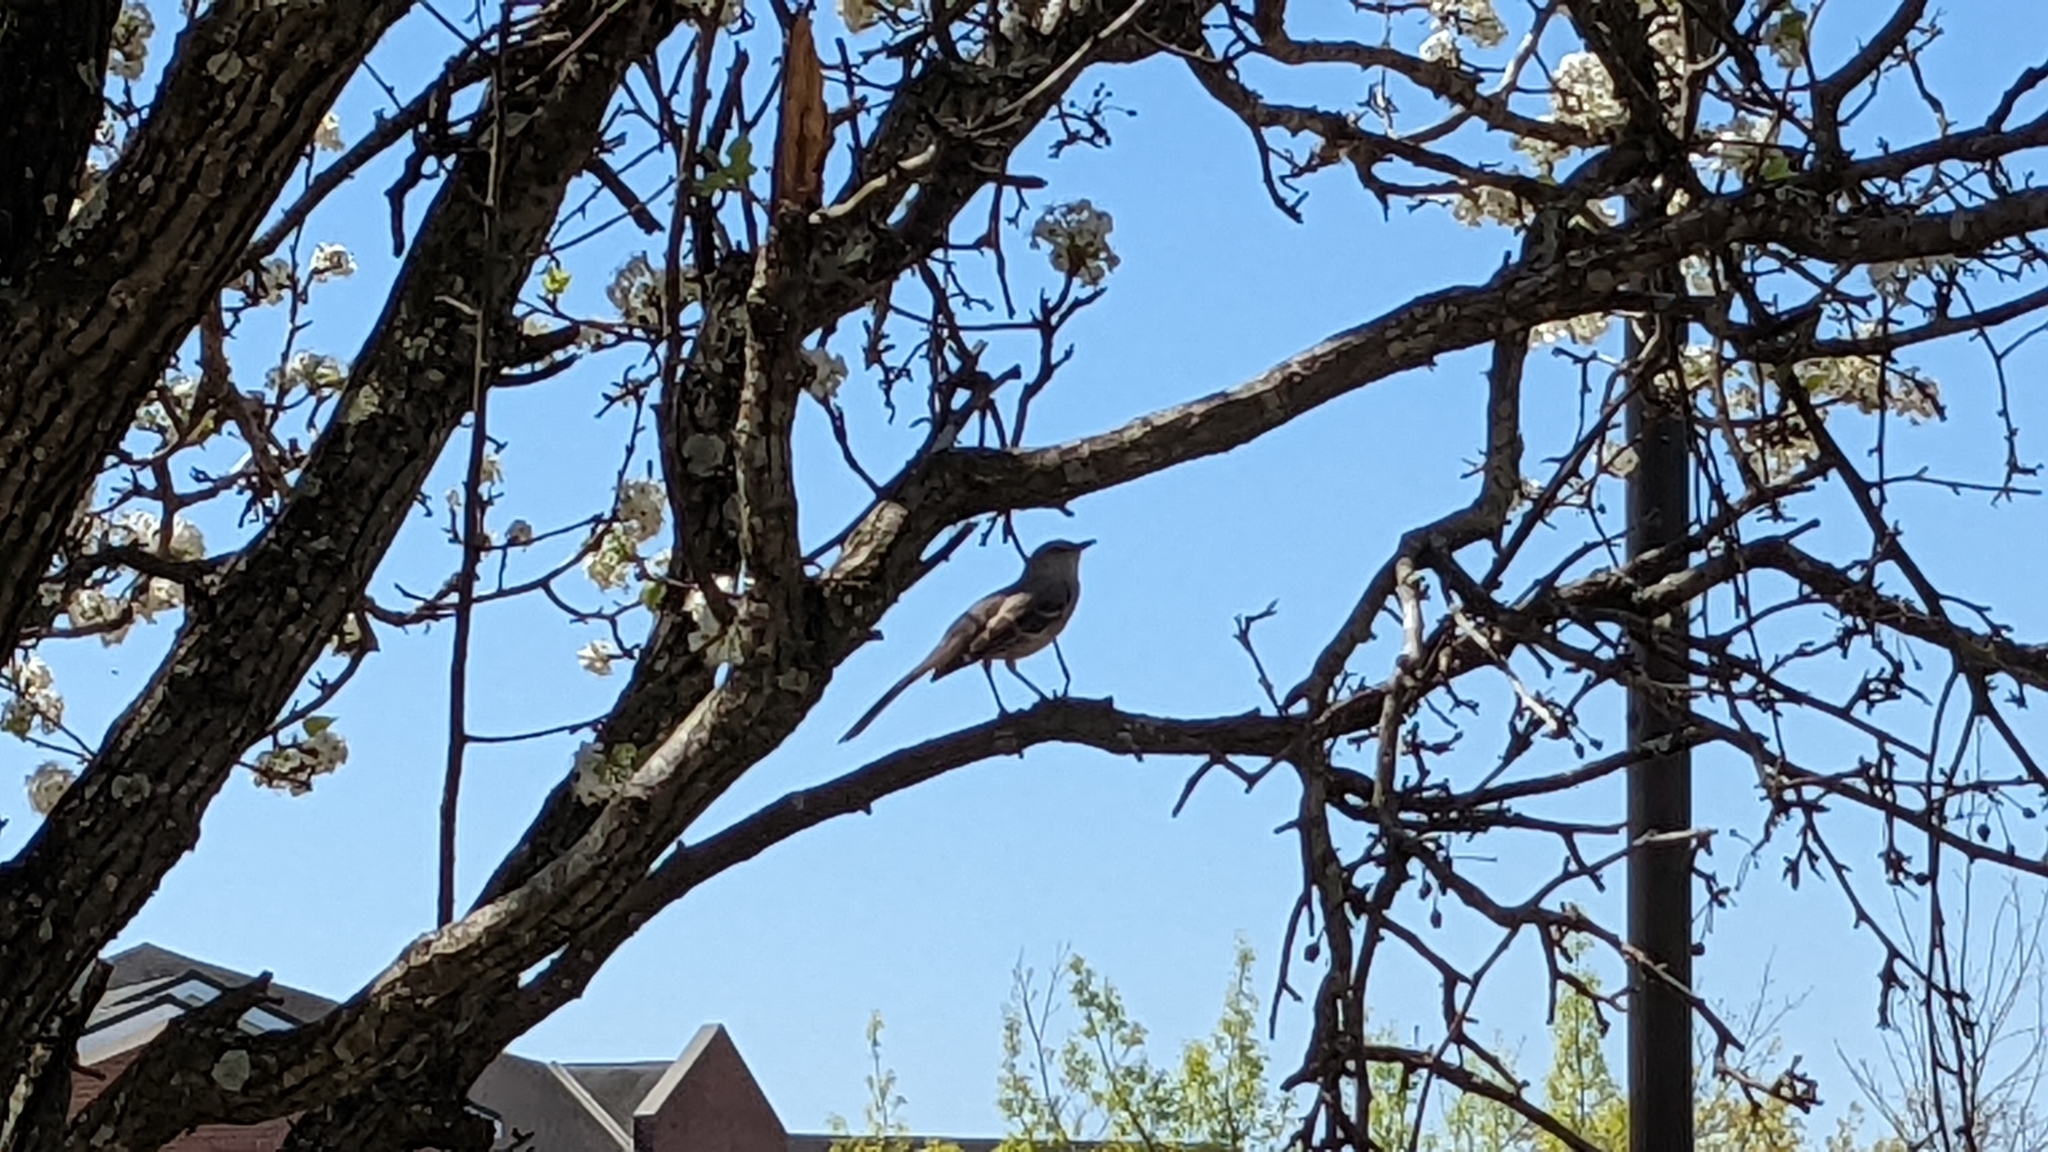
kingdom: Animalia
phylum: Chordata
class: Aves
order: Passeriformes
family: Mimidae
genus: Mimus
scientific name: Mimus polyglottos
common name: Northern mockingbird
